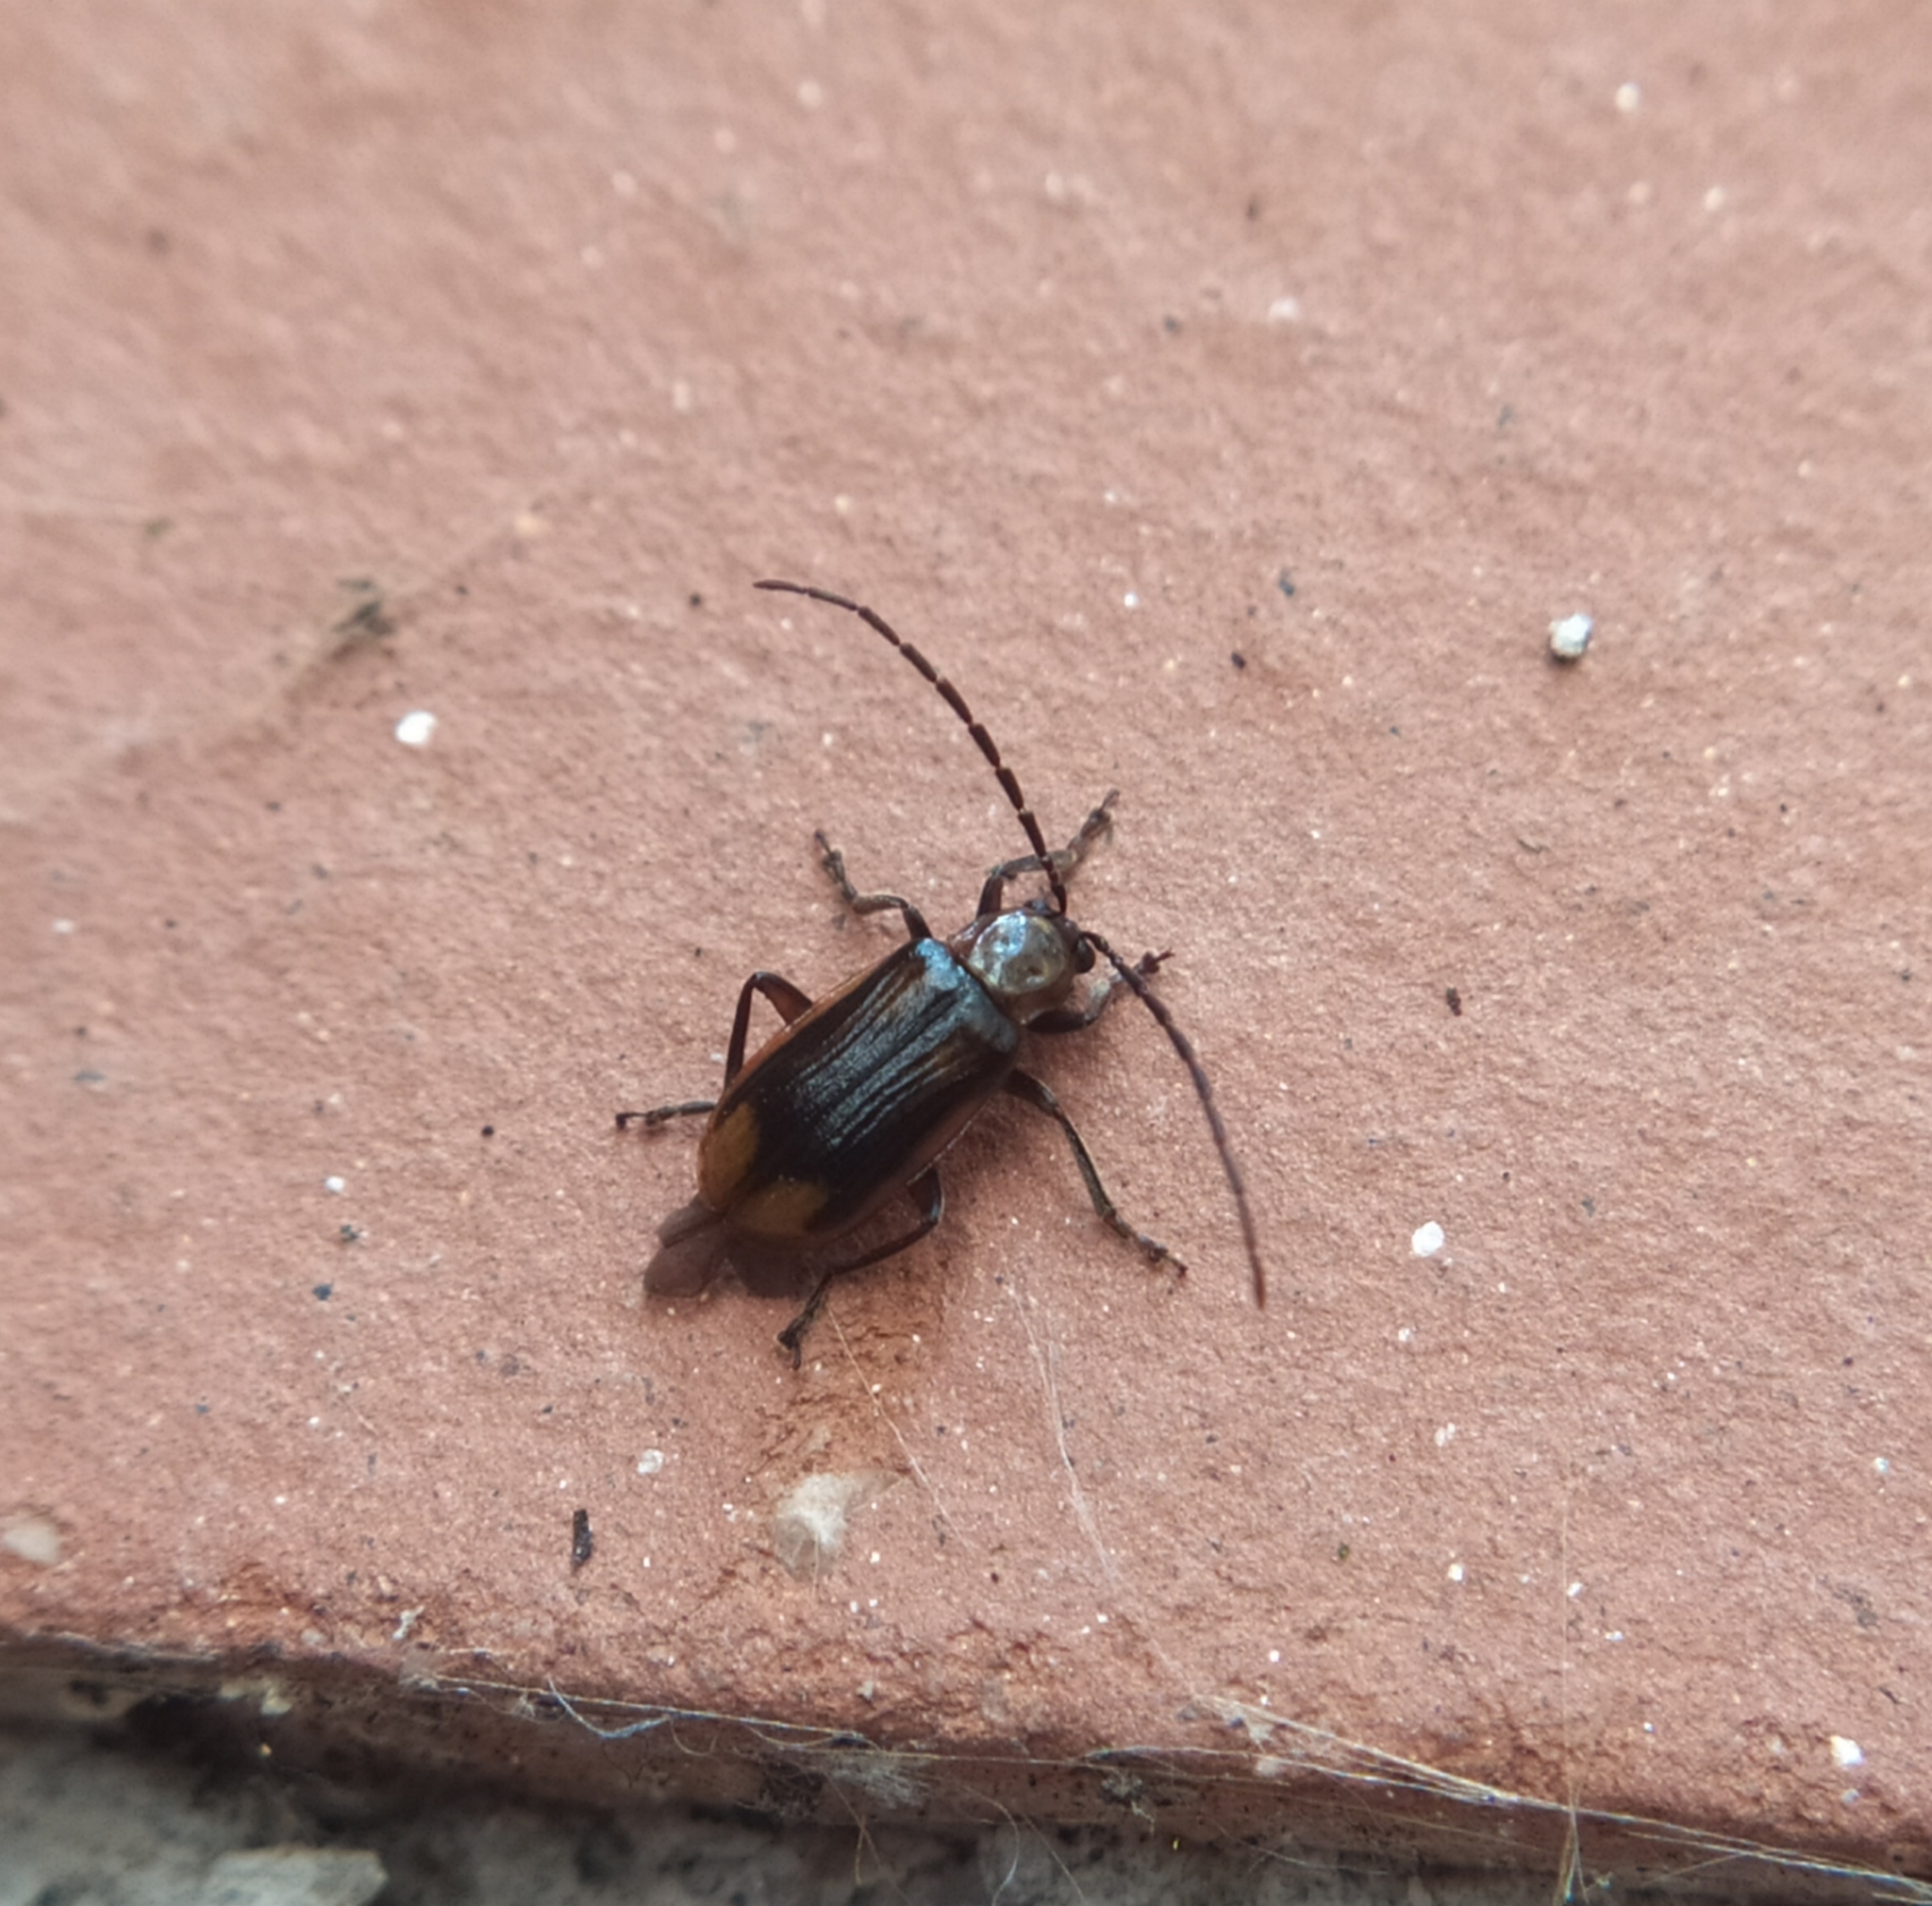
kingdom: Animalia
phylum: Arthropoda
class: Insecta
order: Coleoptera
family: Chrysomelidae
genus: Diabrotica
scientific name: Diabrotica virgifera
